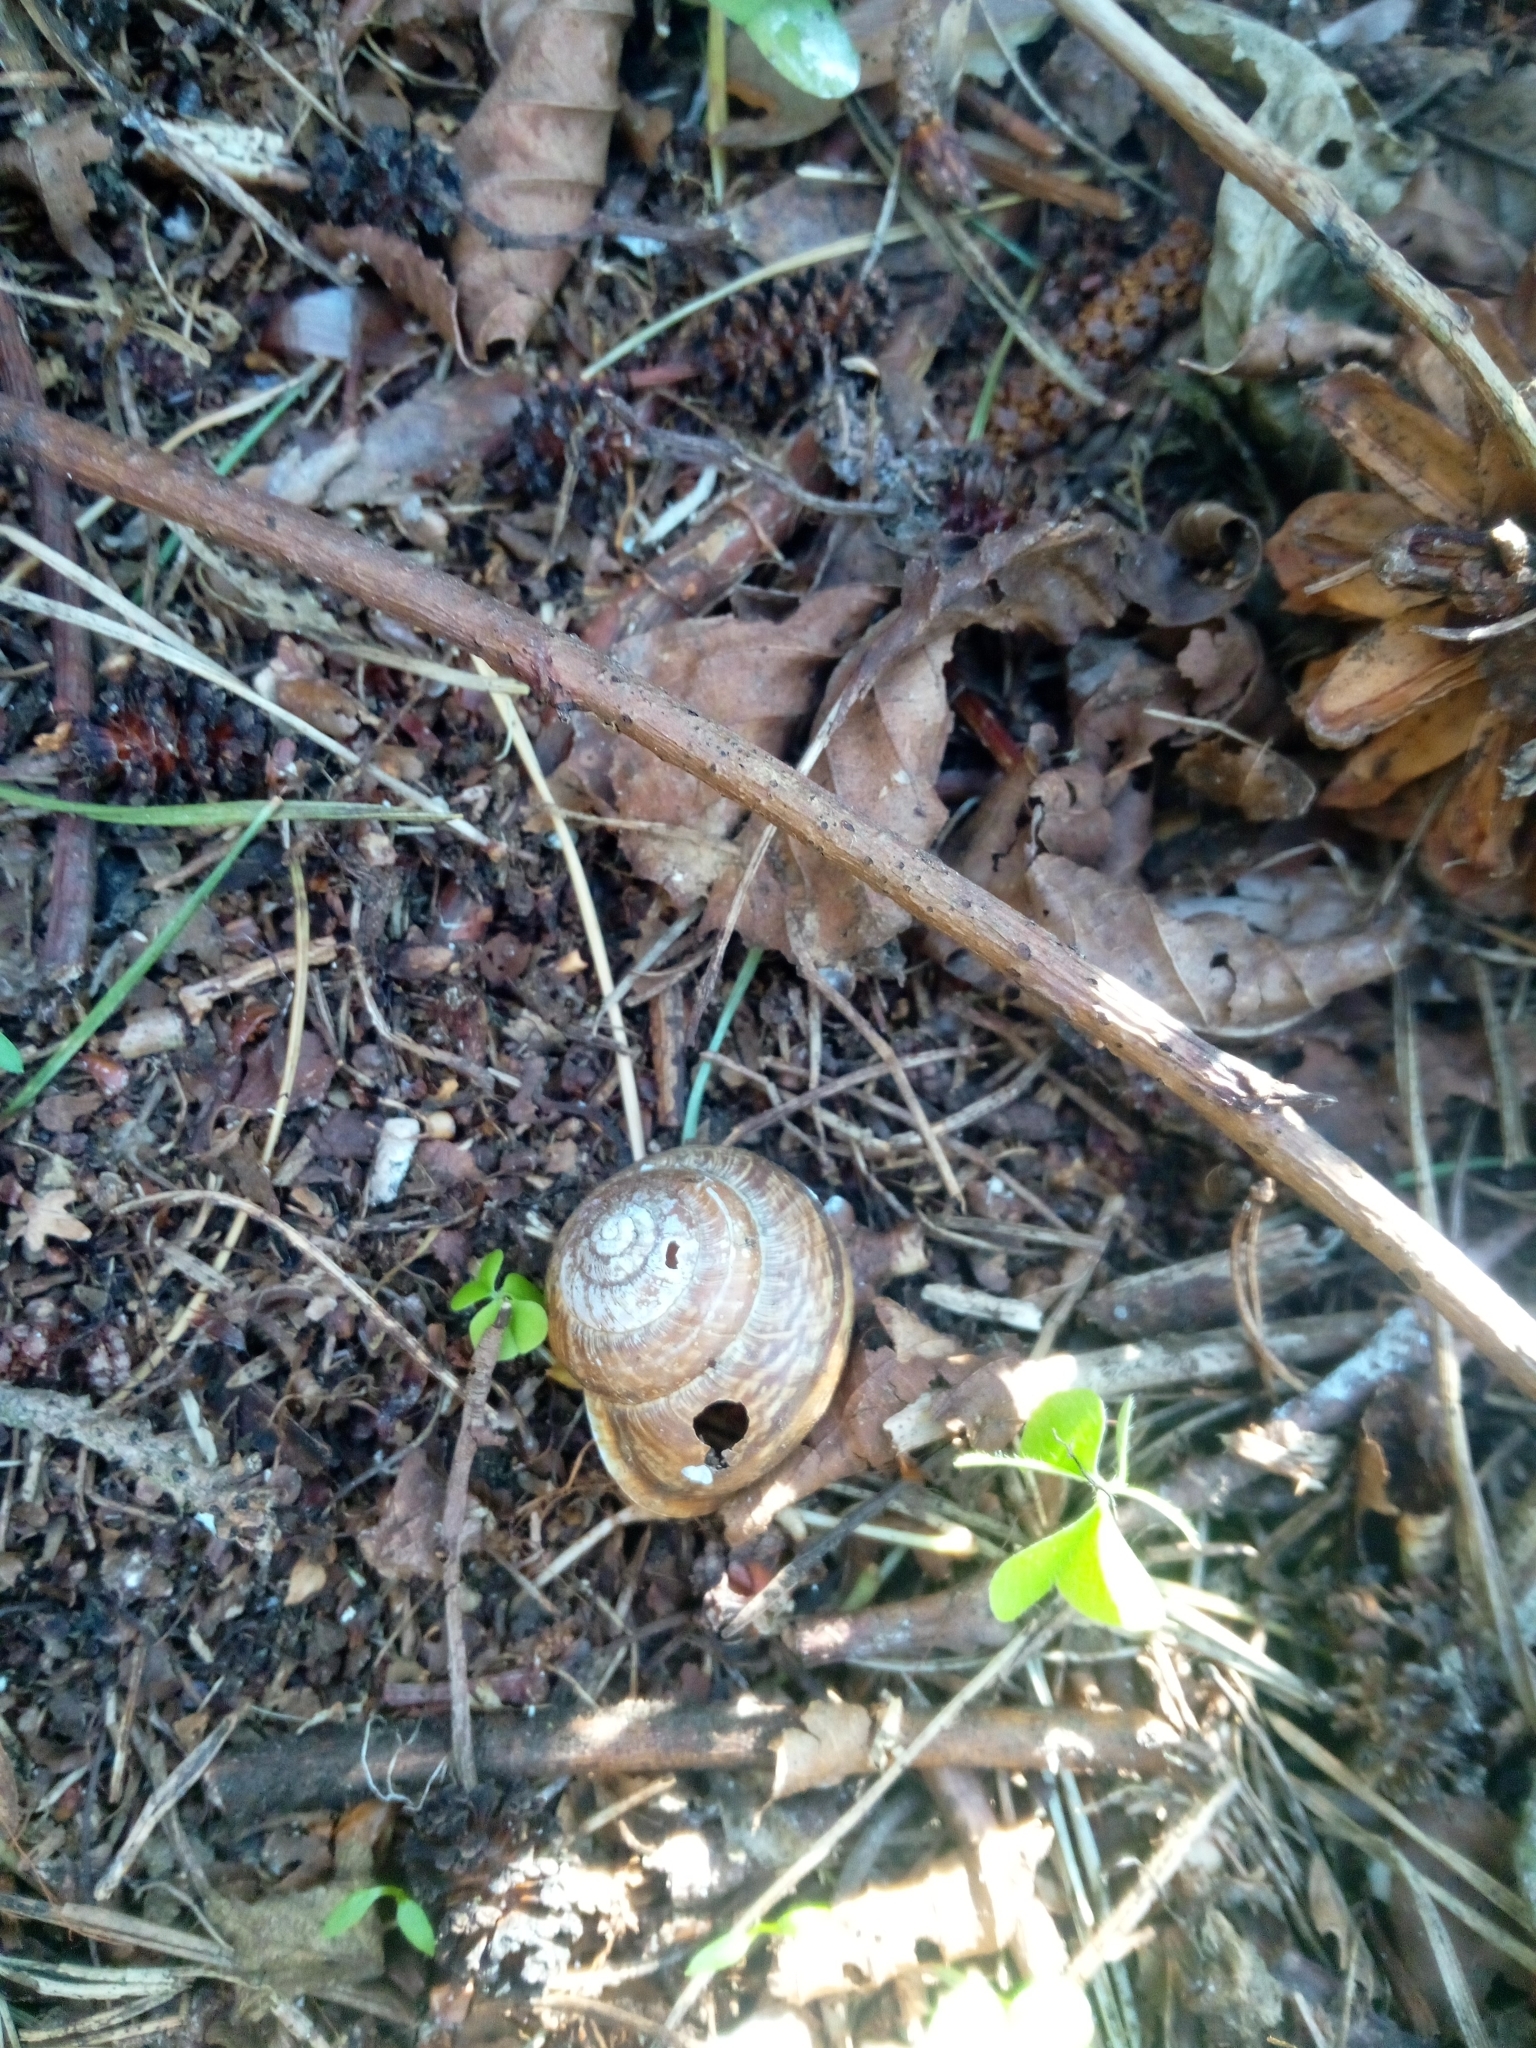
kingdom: Animalia
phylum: Mollusca
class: Gastropoda
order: Stylommatophora
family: Helicidae
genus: Arianta
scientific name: Arianta arbustorum
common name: Copse snail
